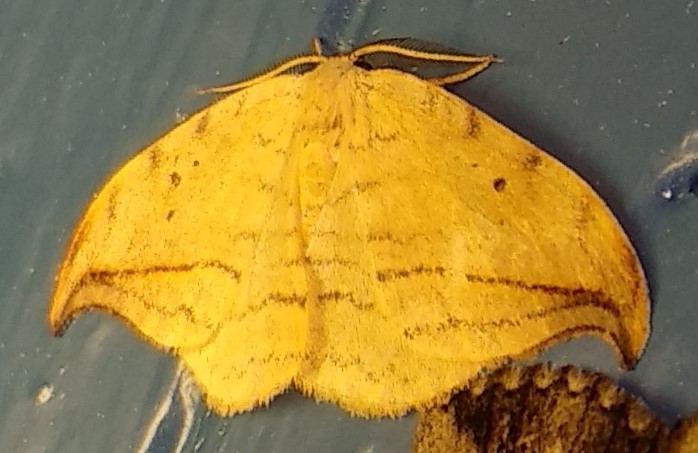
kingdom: Animalia
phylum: Arthropoda
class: Insecta
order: Lepidoptera
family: Drepanidae
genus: Drepana
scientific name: Drepana arcuata
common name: Arched hooktip moth
